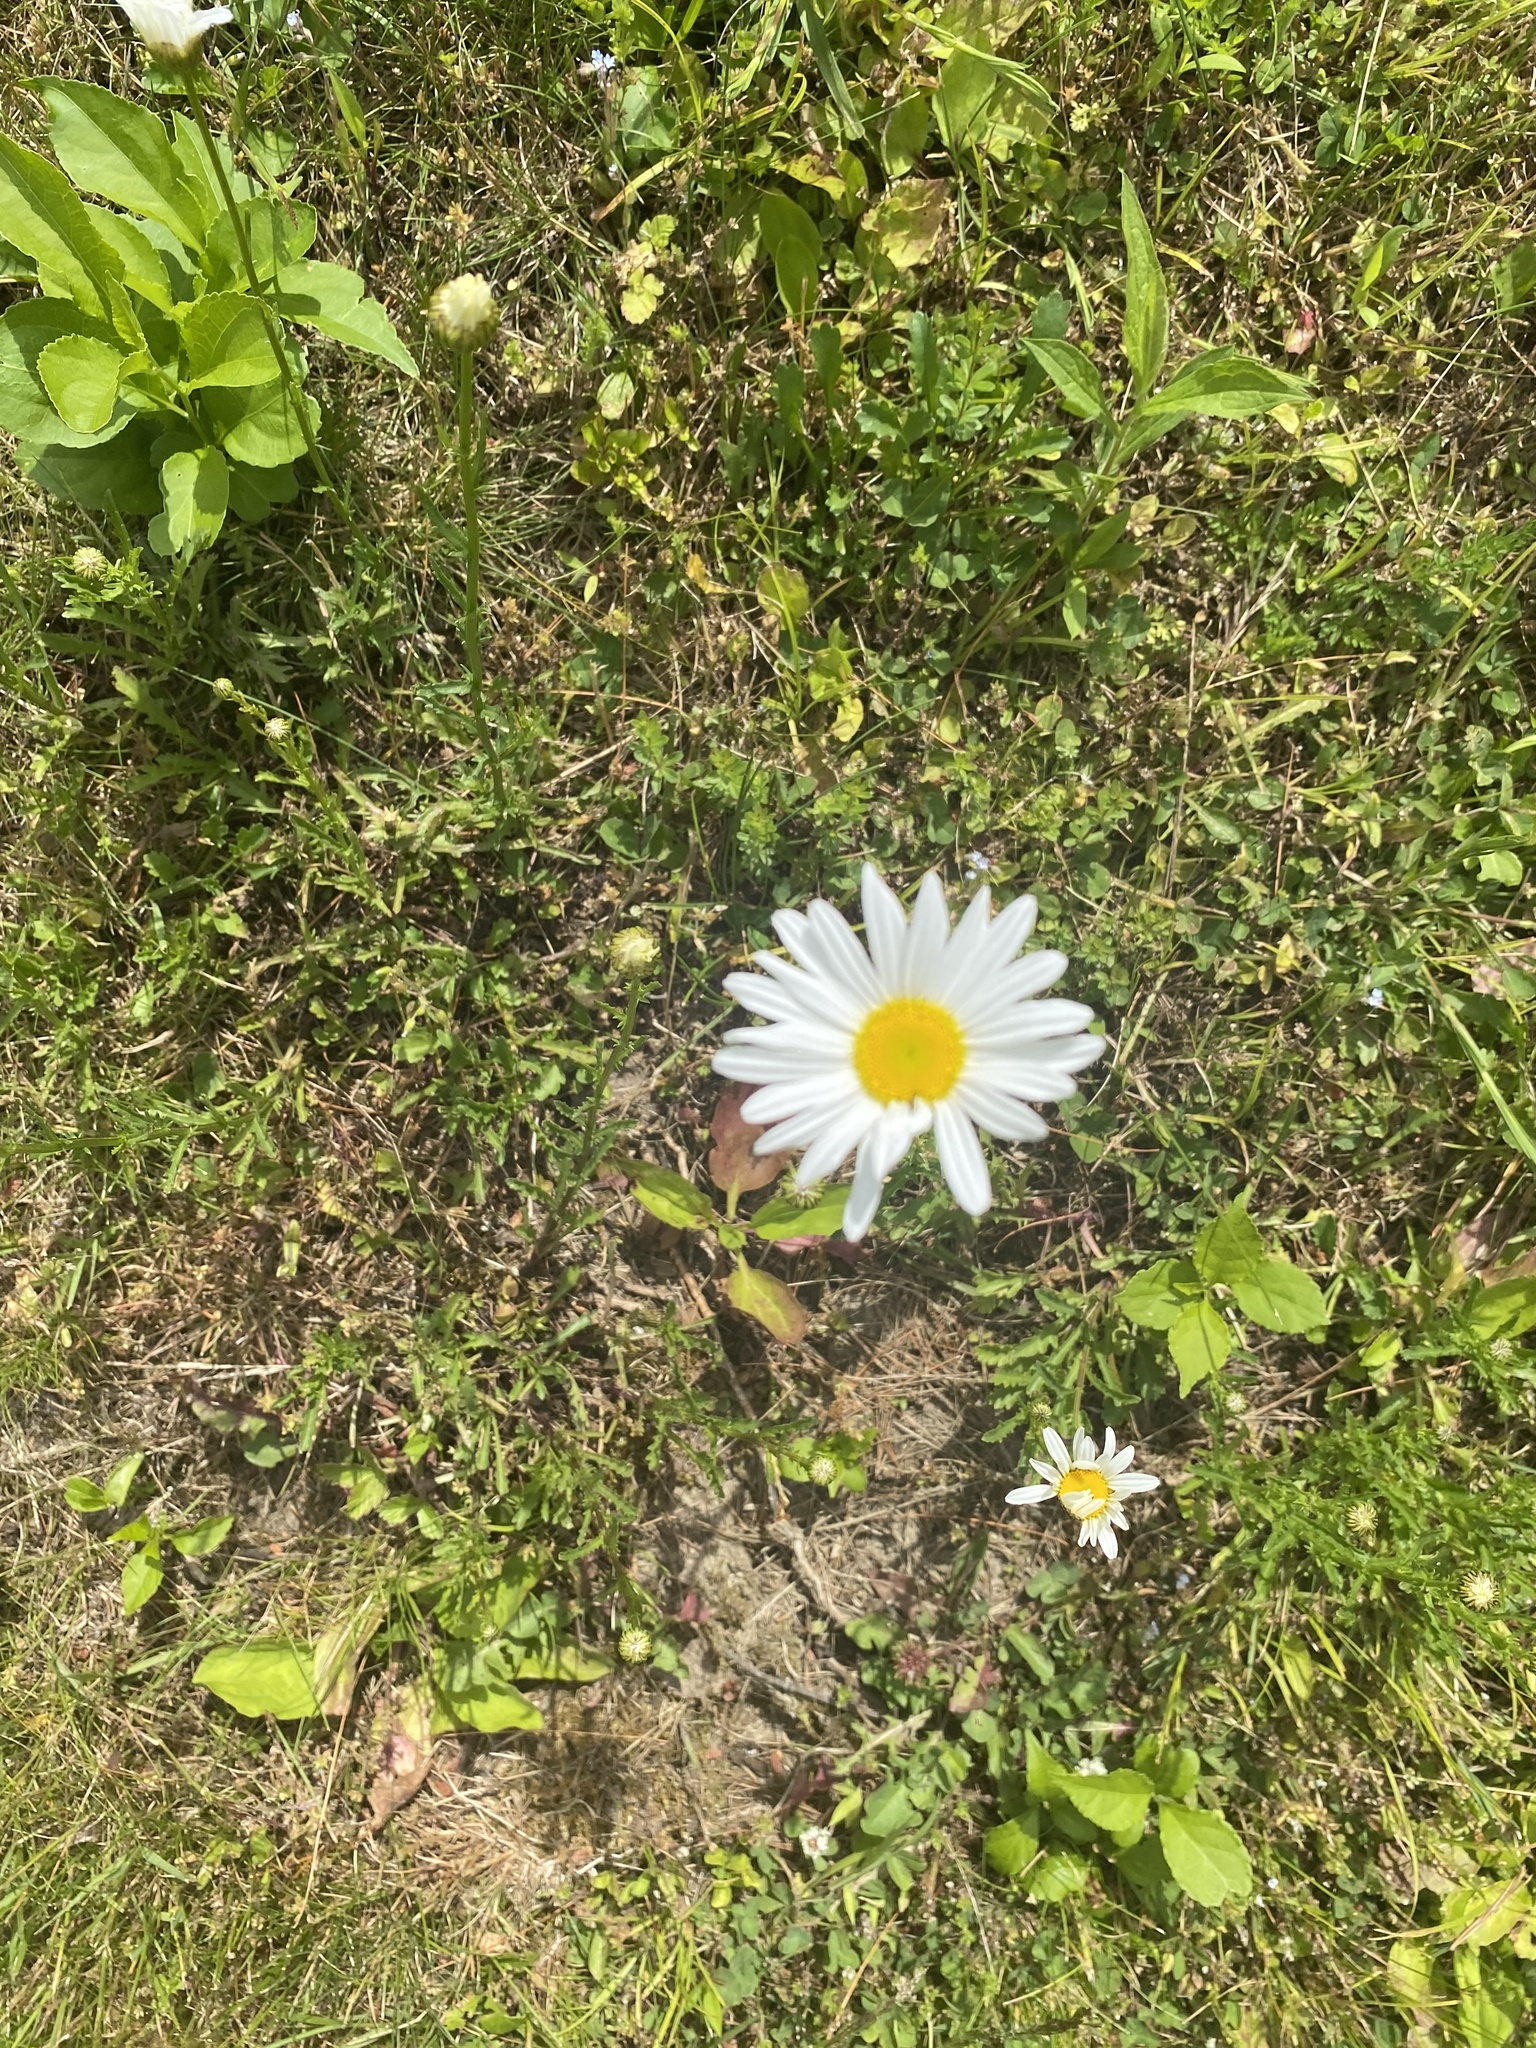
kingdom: Plantae
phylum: Tracheophyta
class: Magnoliopsida
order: Asterales
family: Asteraceae
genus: Leucanthemum
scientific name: Leucanthemum vulgare
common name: Oxeye daisy
